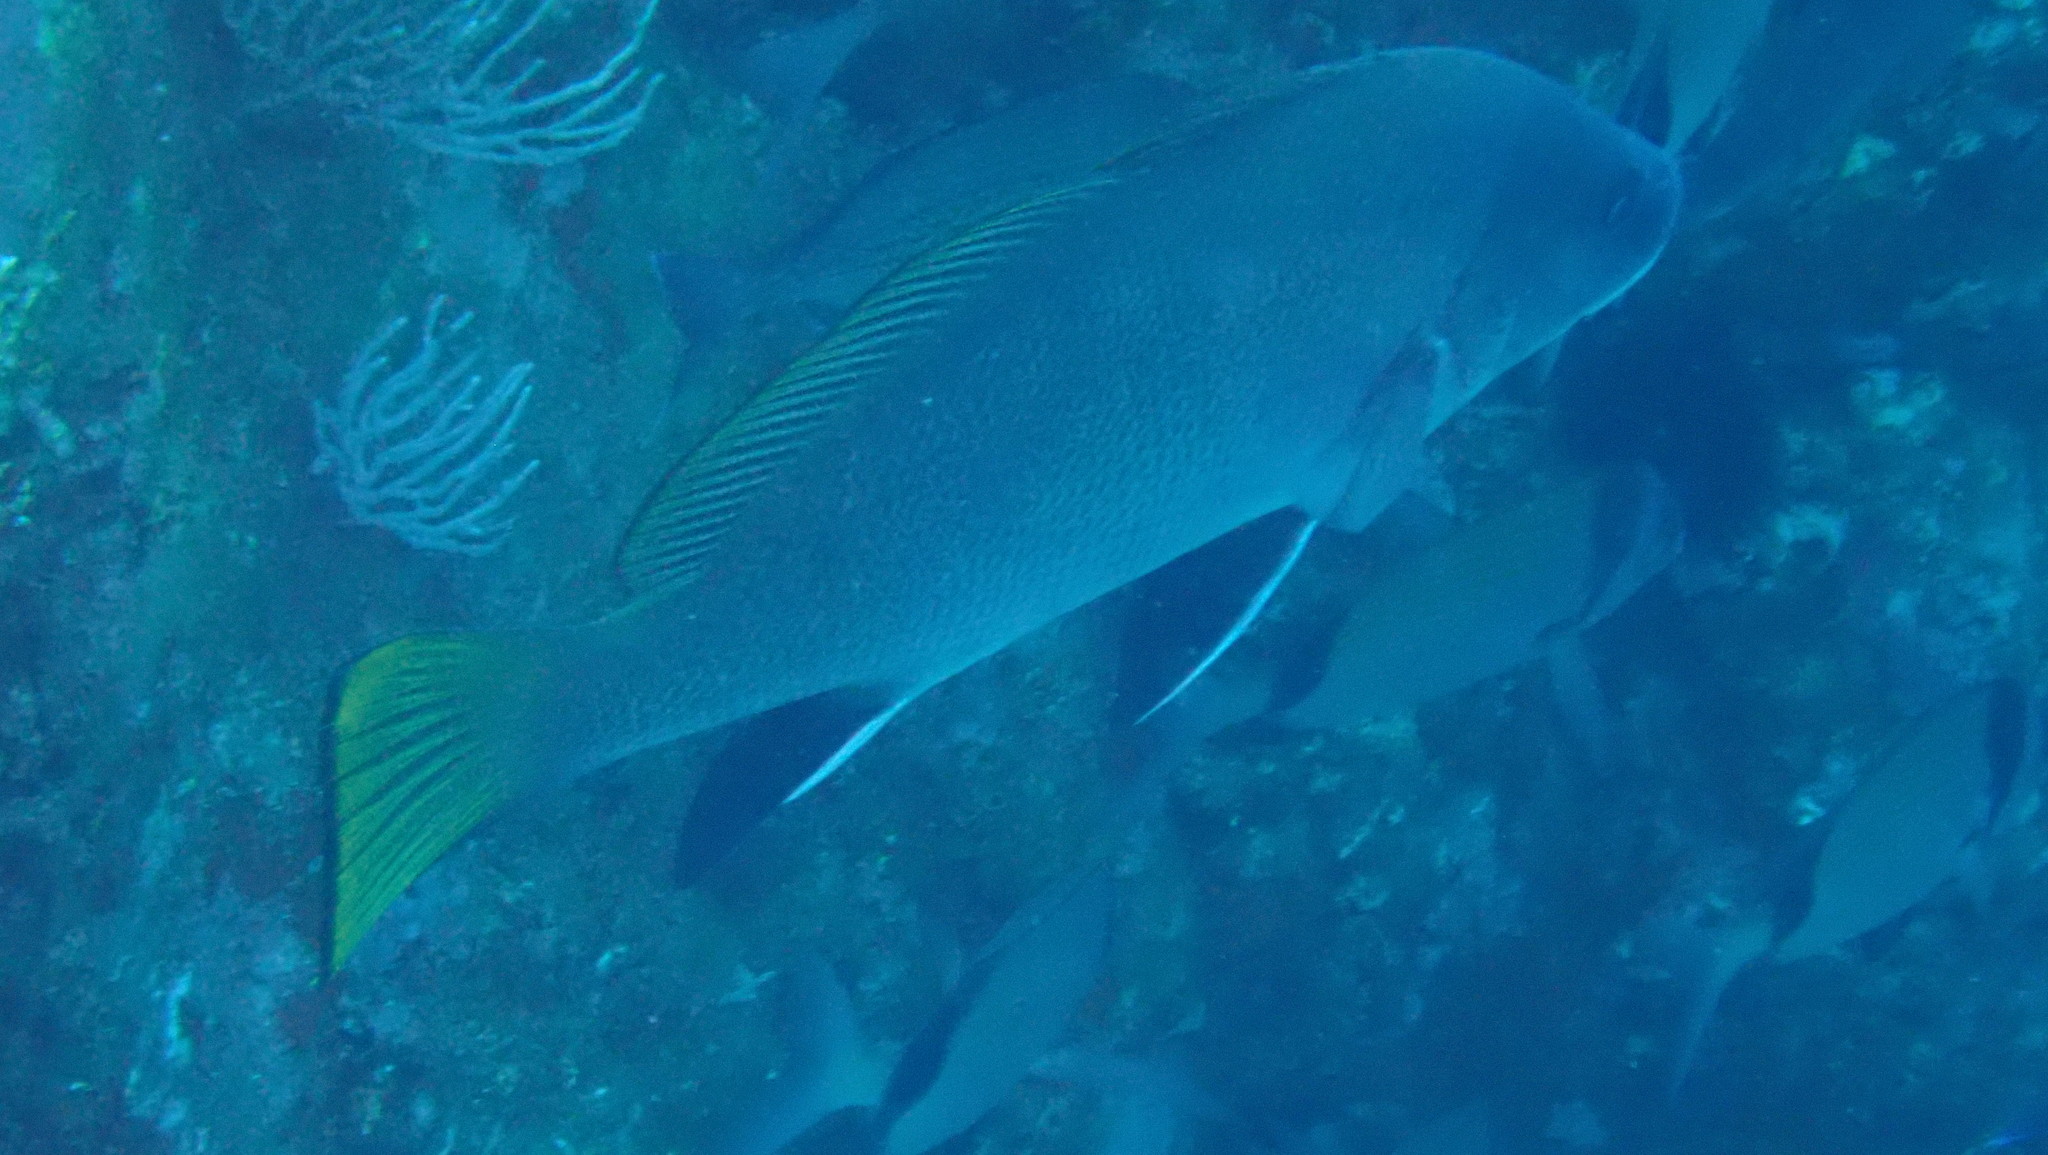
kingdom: Animalia
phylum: Chordata
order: Perciformes
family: Sciaenidae
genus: Sciaena
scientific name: Sciaena umbra
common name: Brown meagre
